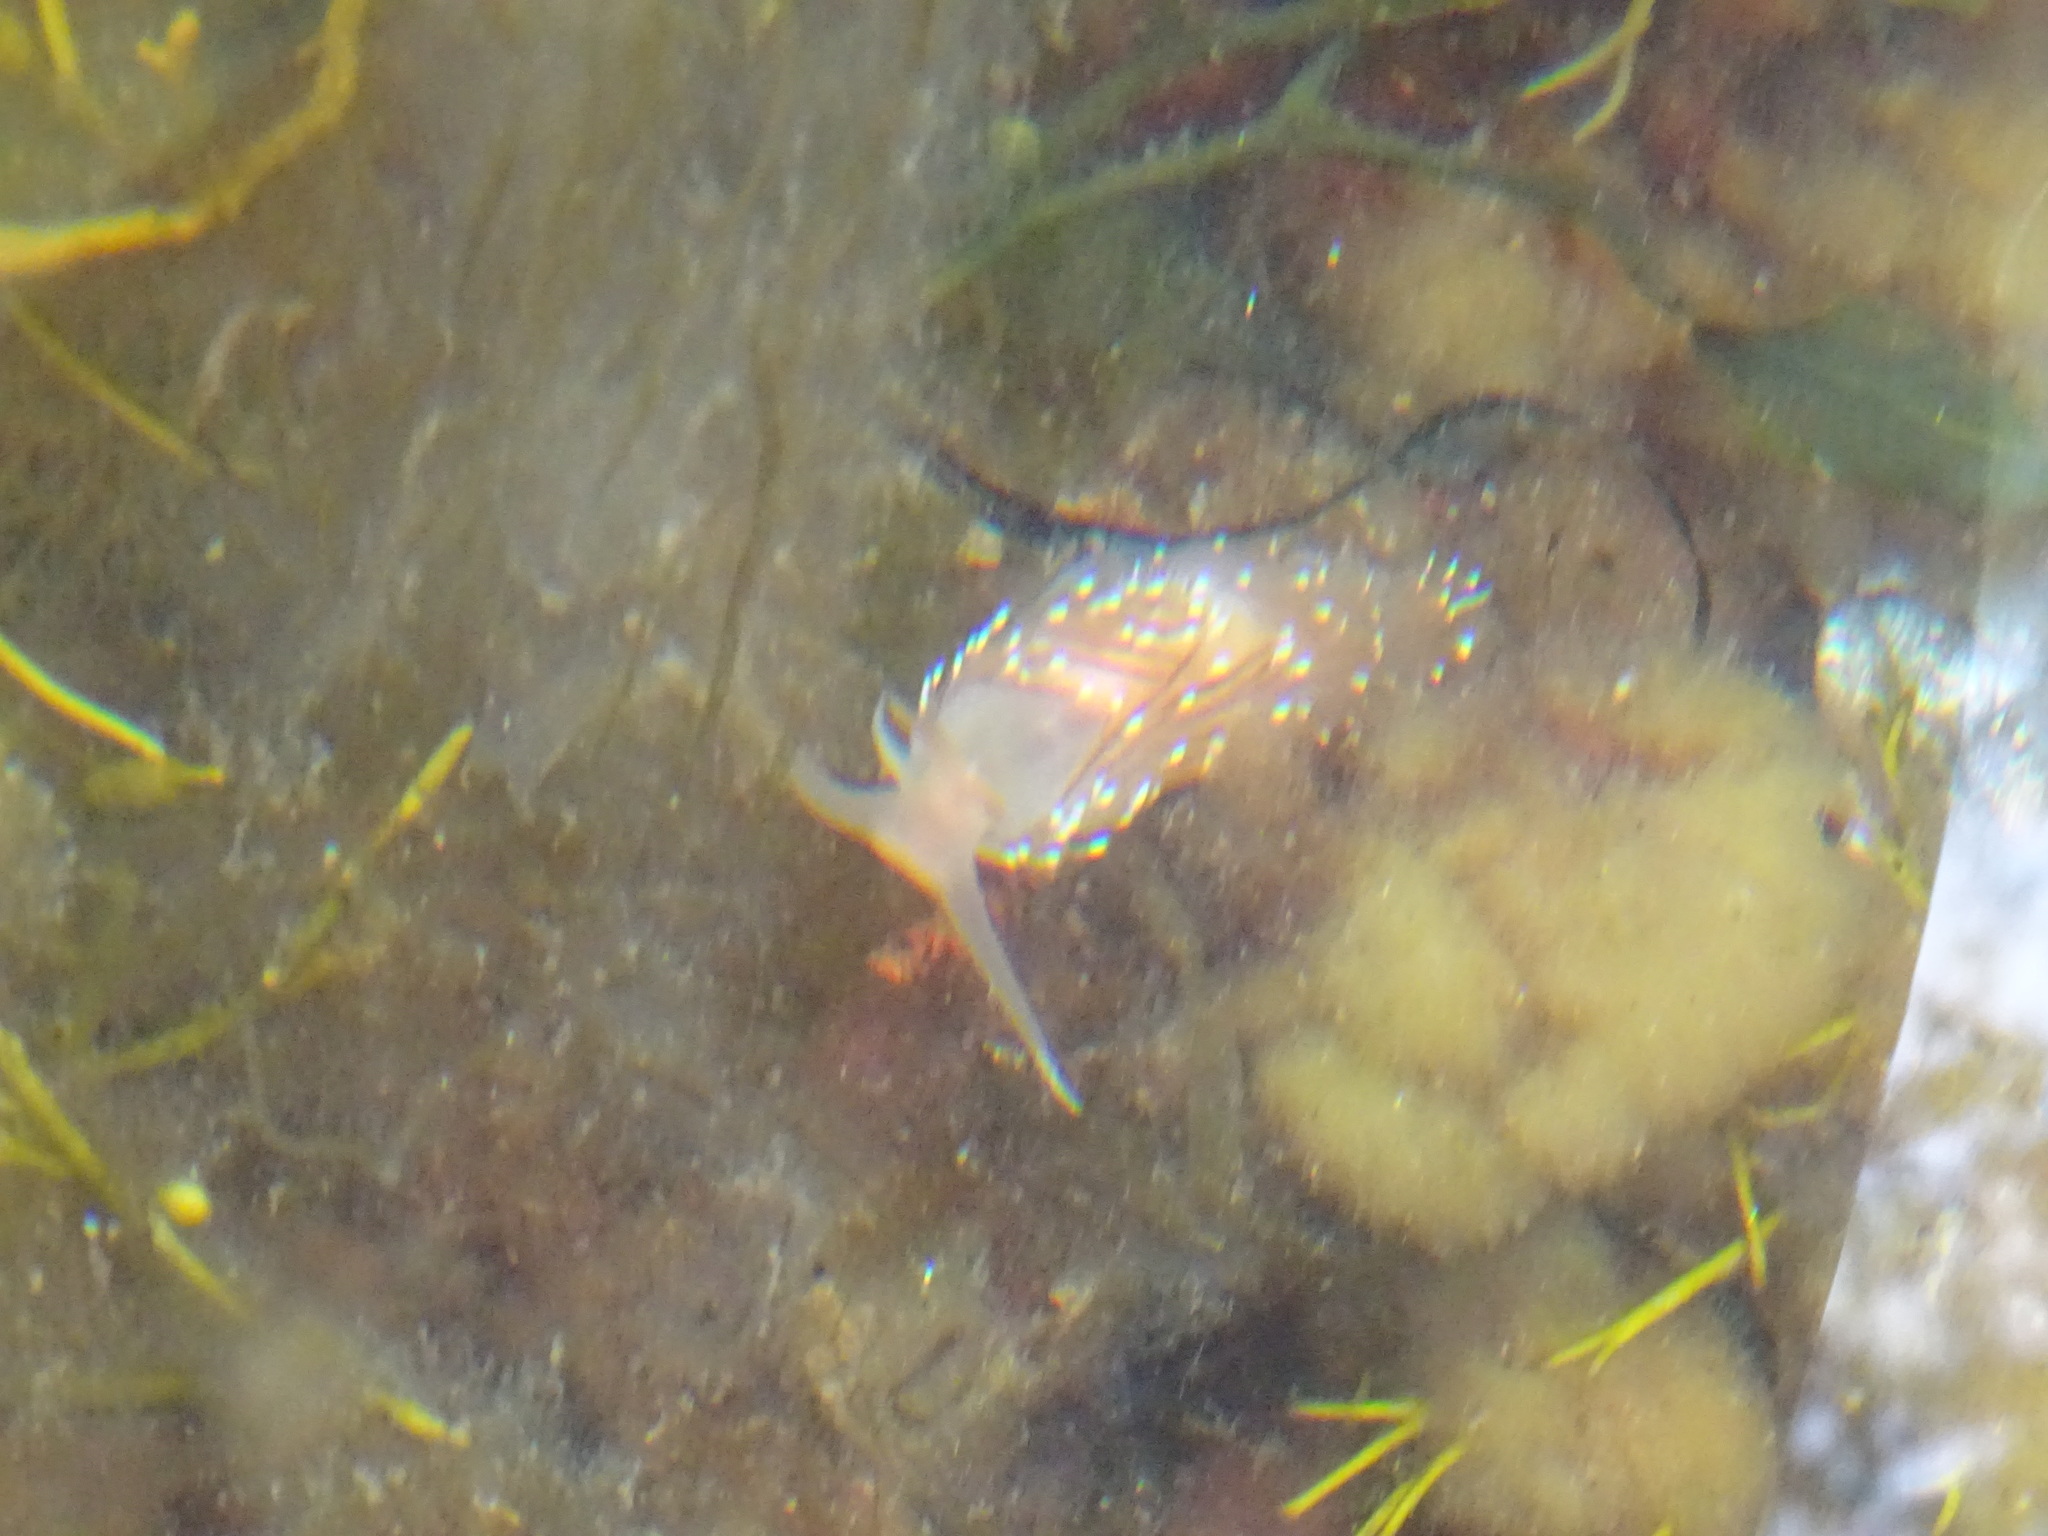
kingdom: Animalia
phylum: Mollusca
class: Gastropoda
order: Nudibranchia
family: Facelinidae
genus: Facelina
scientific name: Facelina bostoniensis
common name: Boston facelina
